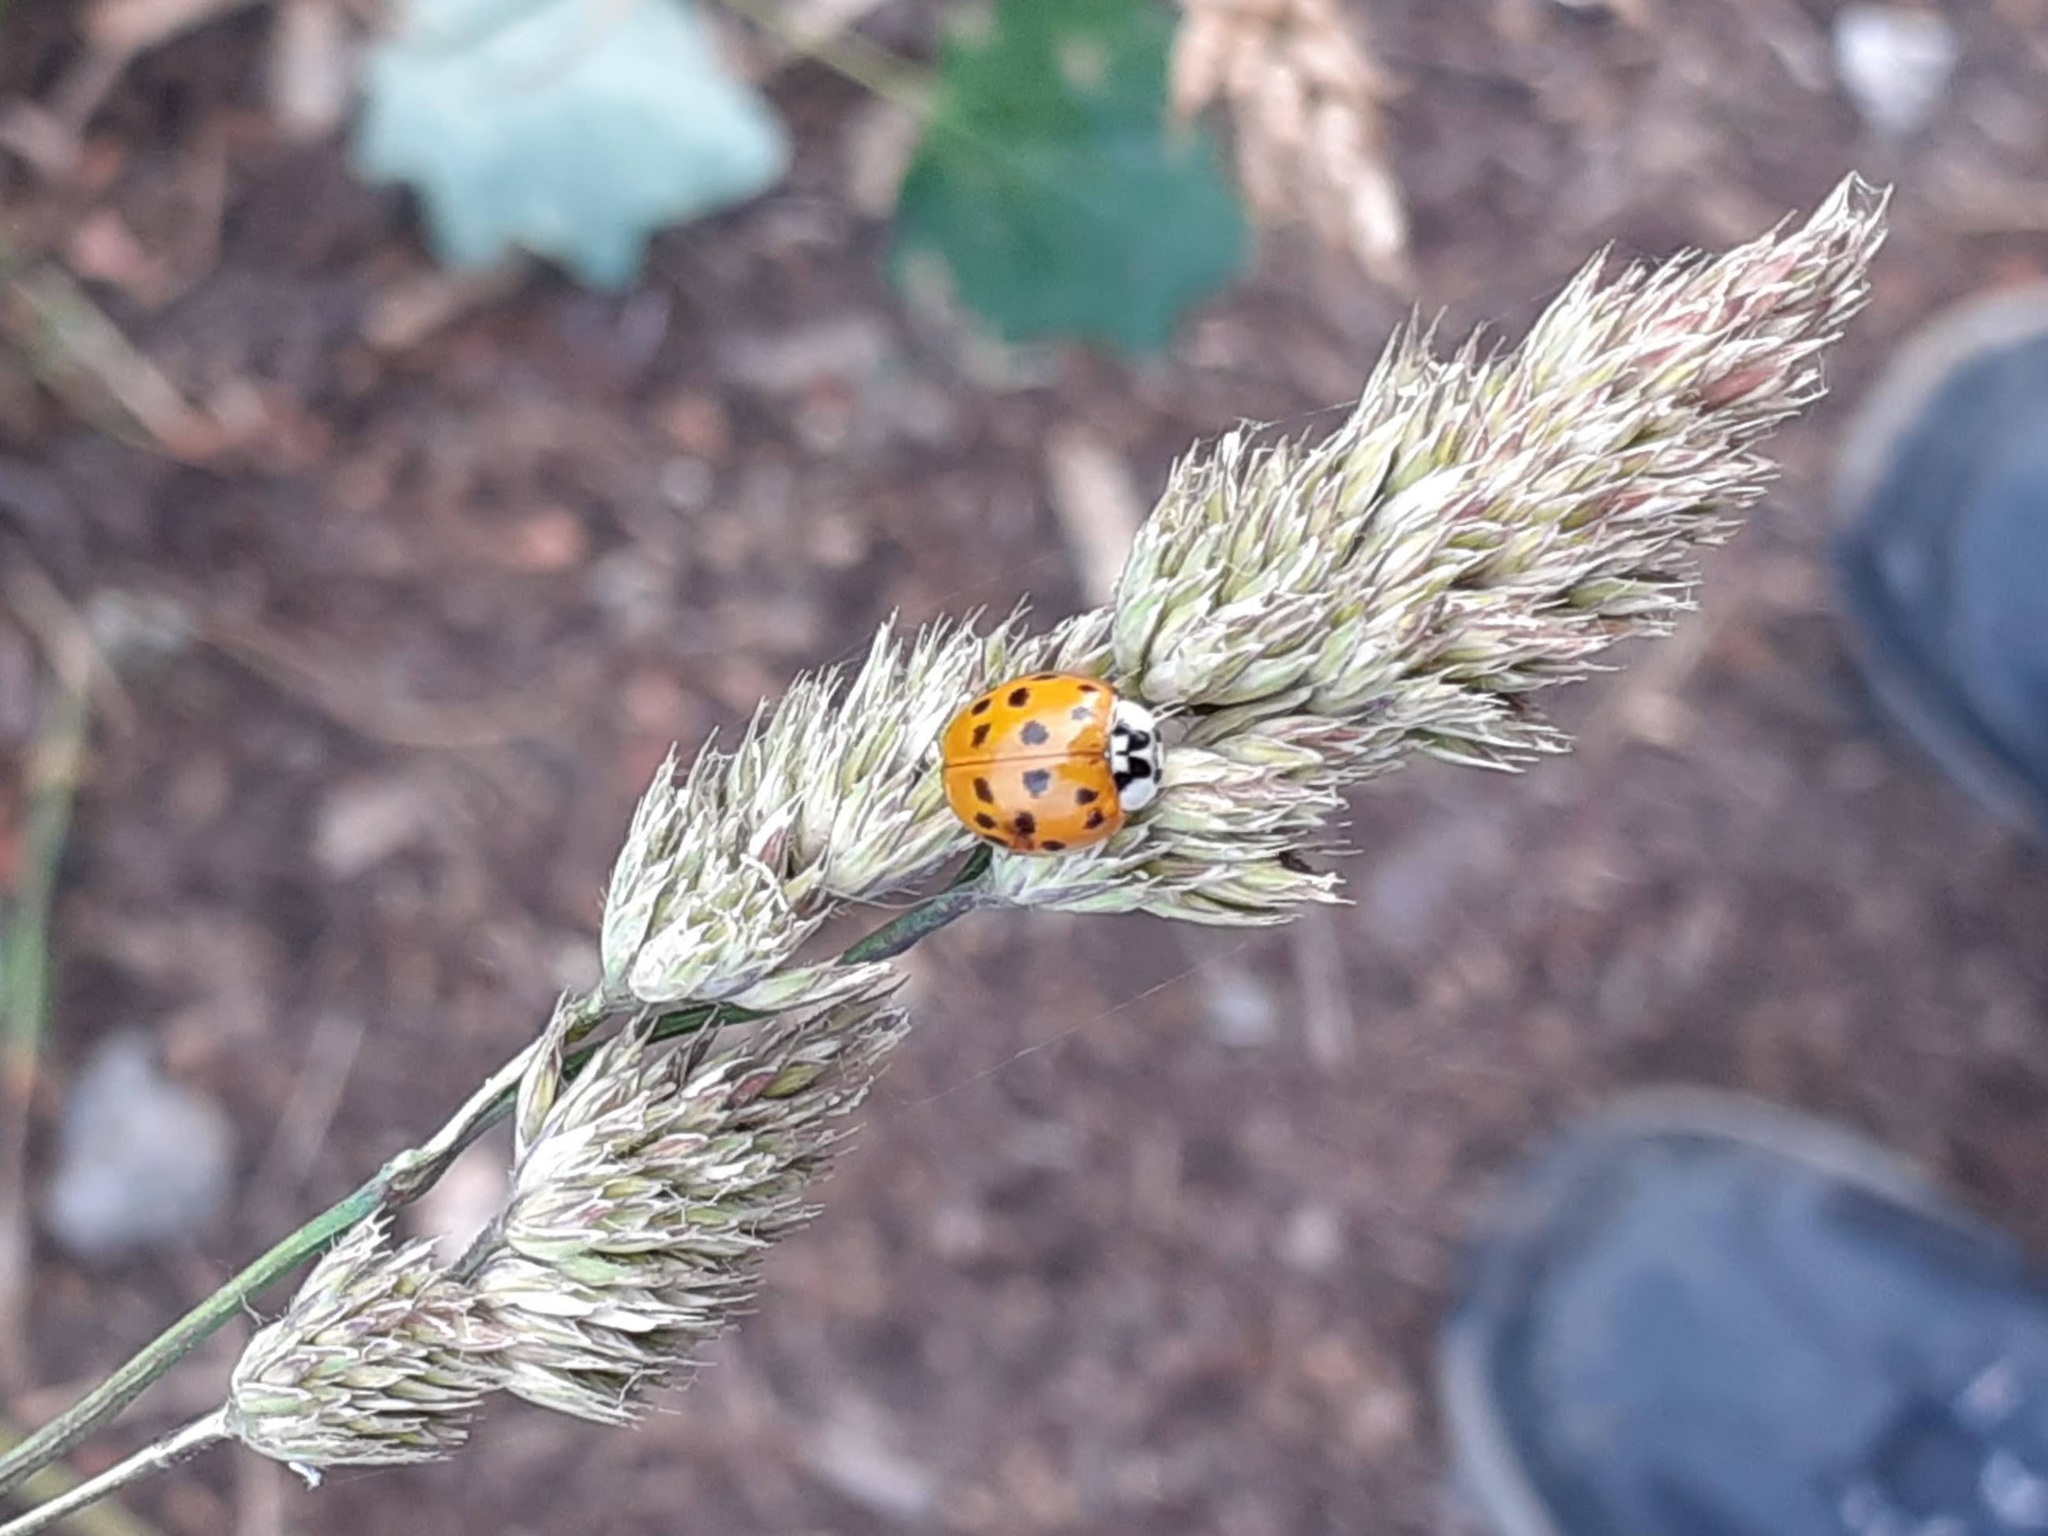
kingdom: Animalia
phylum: Arthropoda
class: Insecta
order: Coleoptera
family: Coccinellidae
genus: Harmonia
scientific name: Harmonia axyridis
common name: Harlequin ladybird
